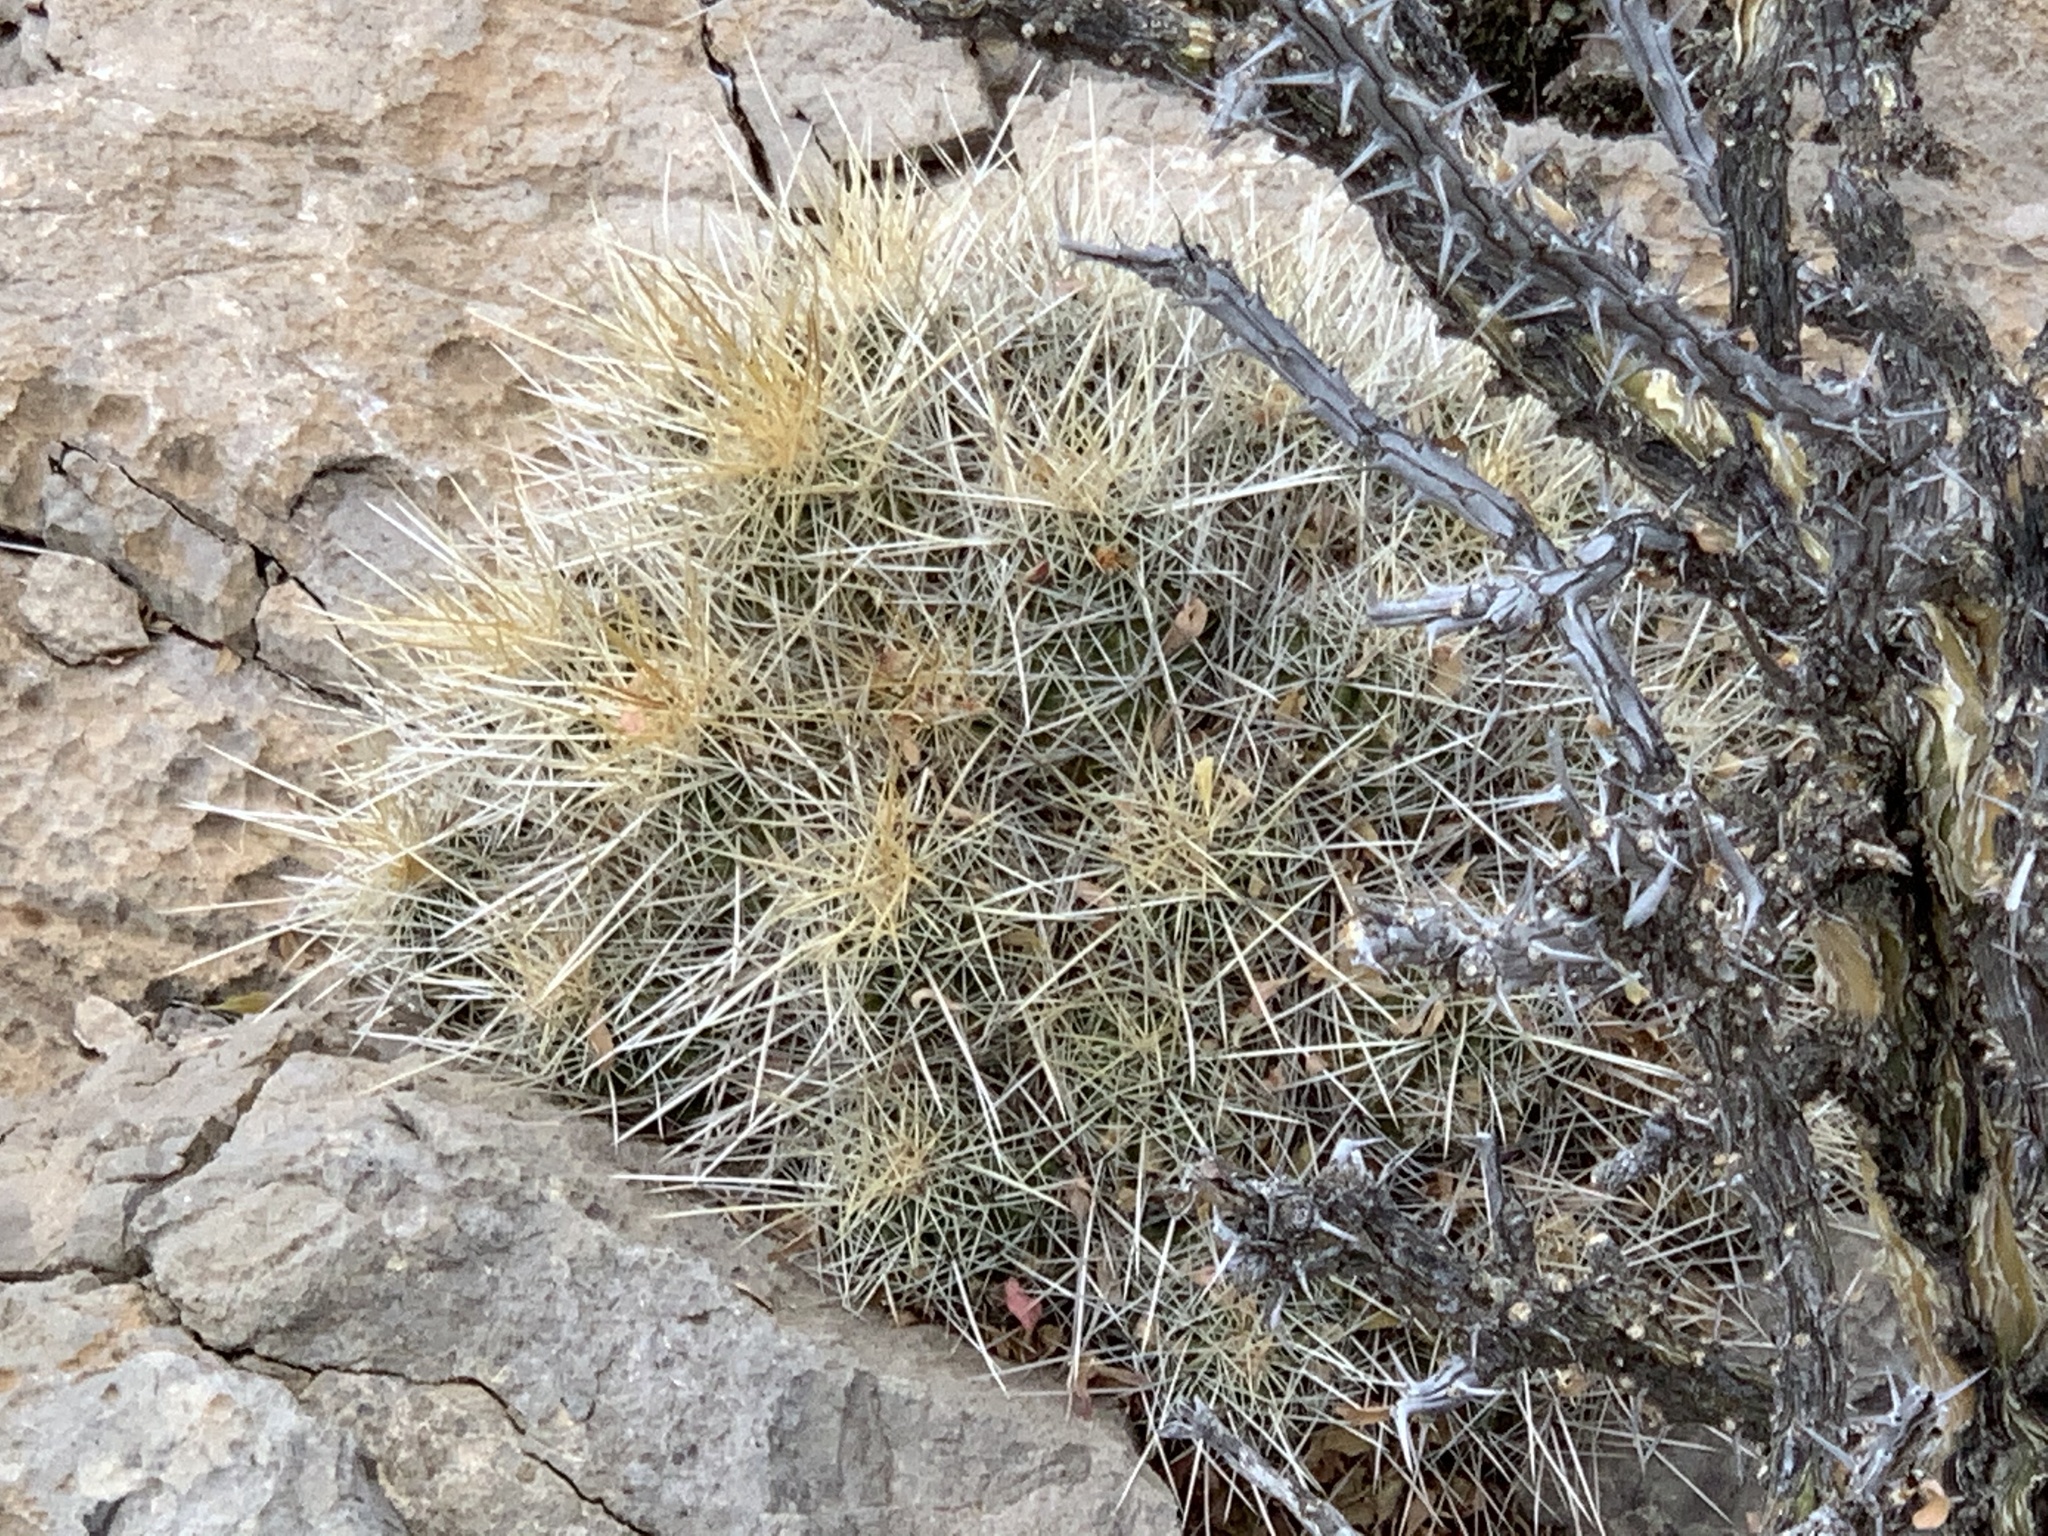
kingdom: Plantae
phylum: Tracheophyta
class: Magnoliopsida
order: Caryophyllales
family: Cactaceae
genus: Echinocereus
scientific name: Echinocereus stramineus
